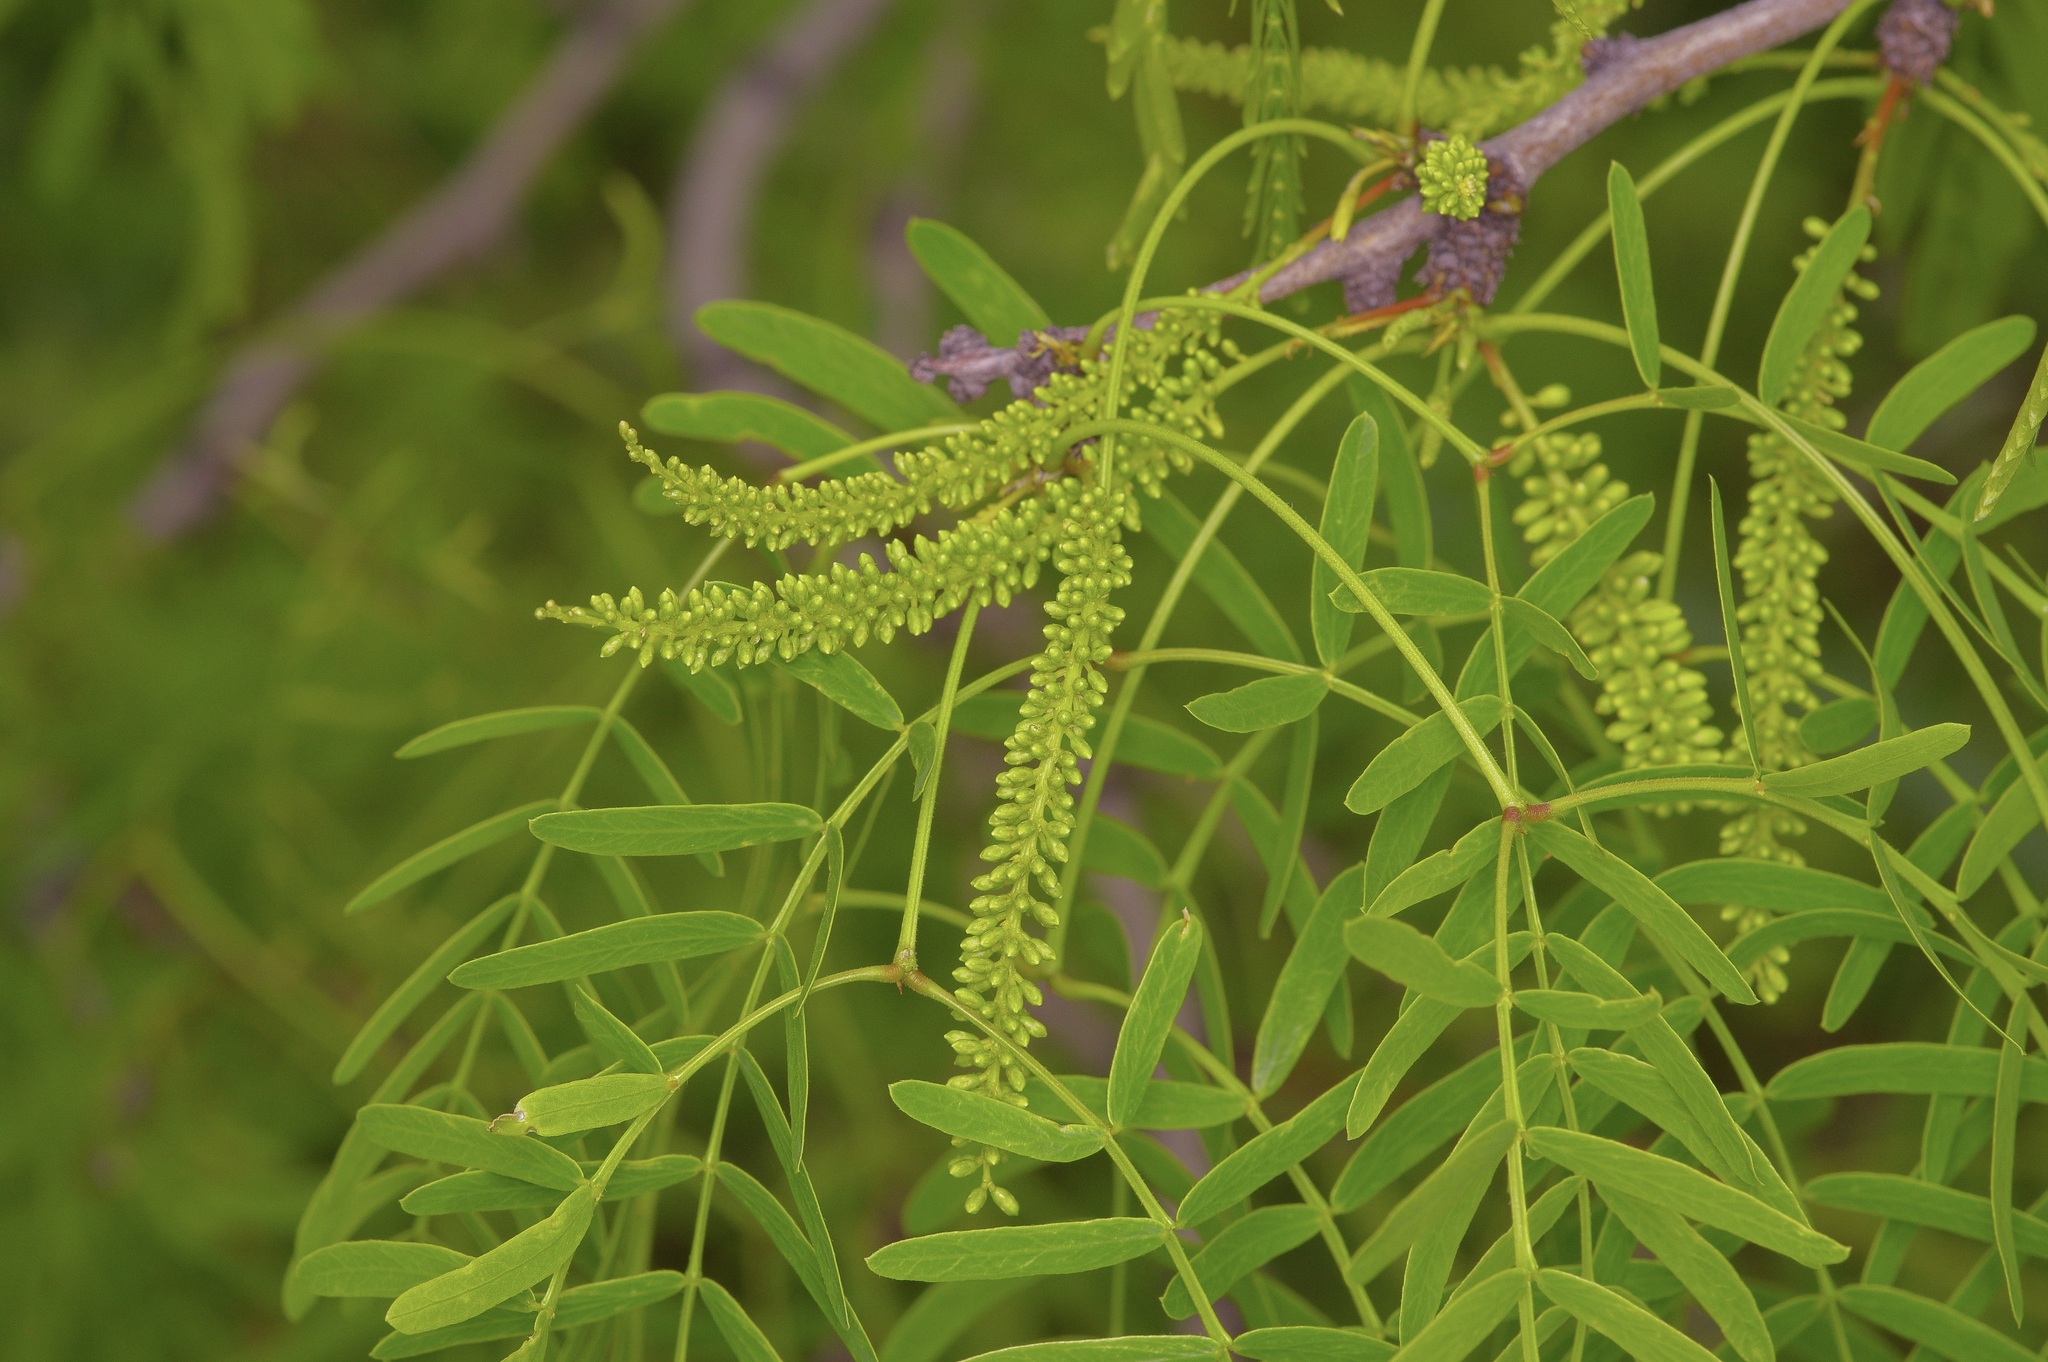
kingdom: Plantae
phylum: Tracheophyta
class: Magnoliopsida
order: Fabales
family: Fabaceae
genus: Prosopis
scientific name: Prosopis glandulosa
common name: Honey mesquite
